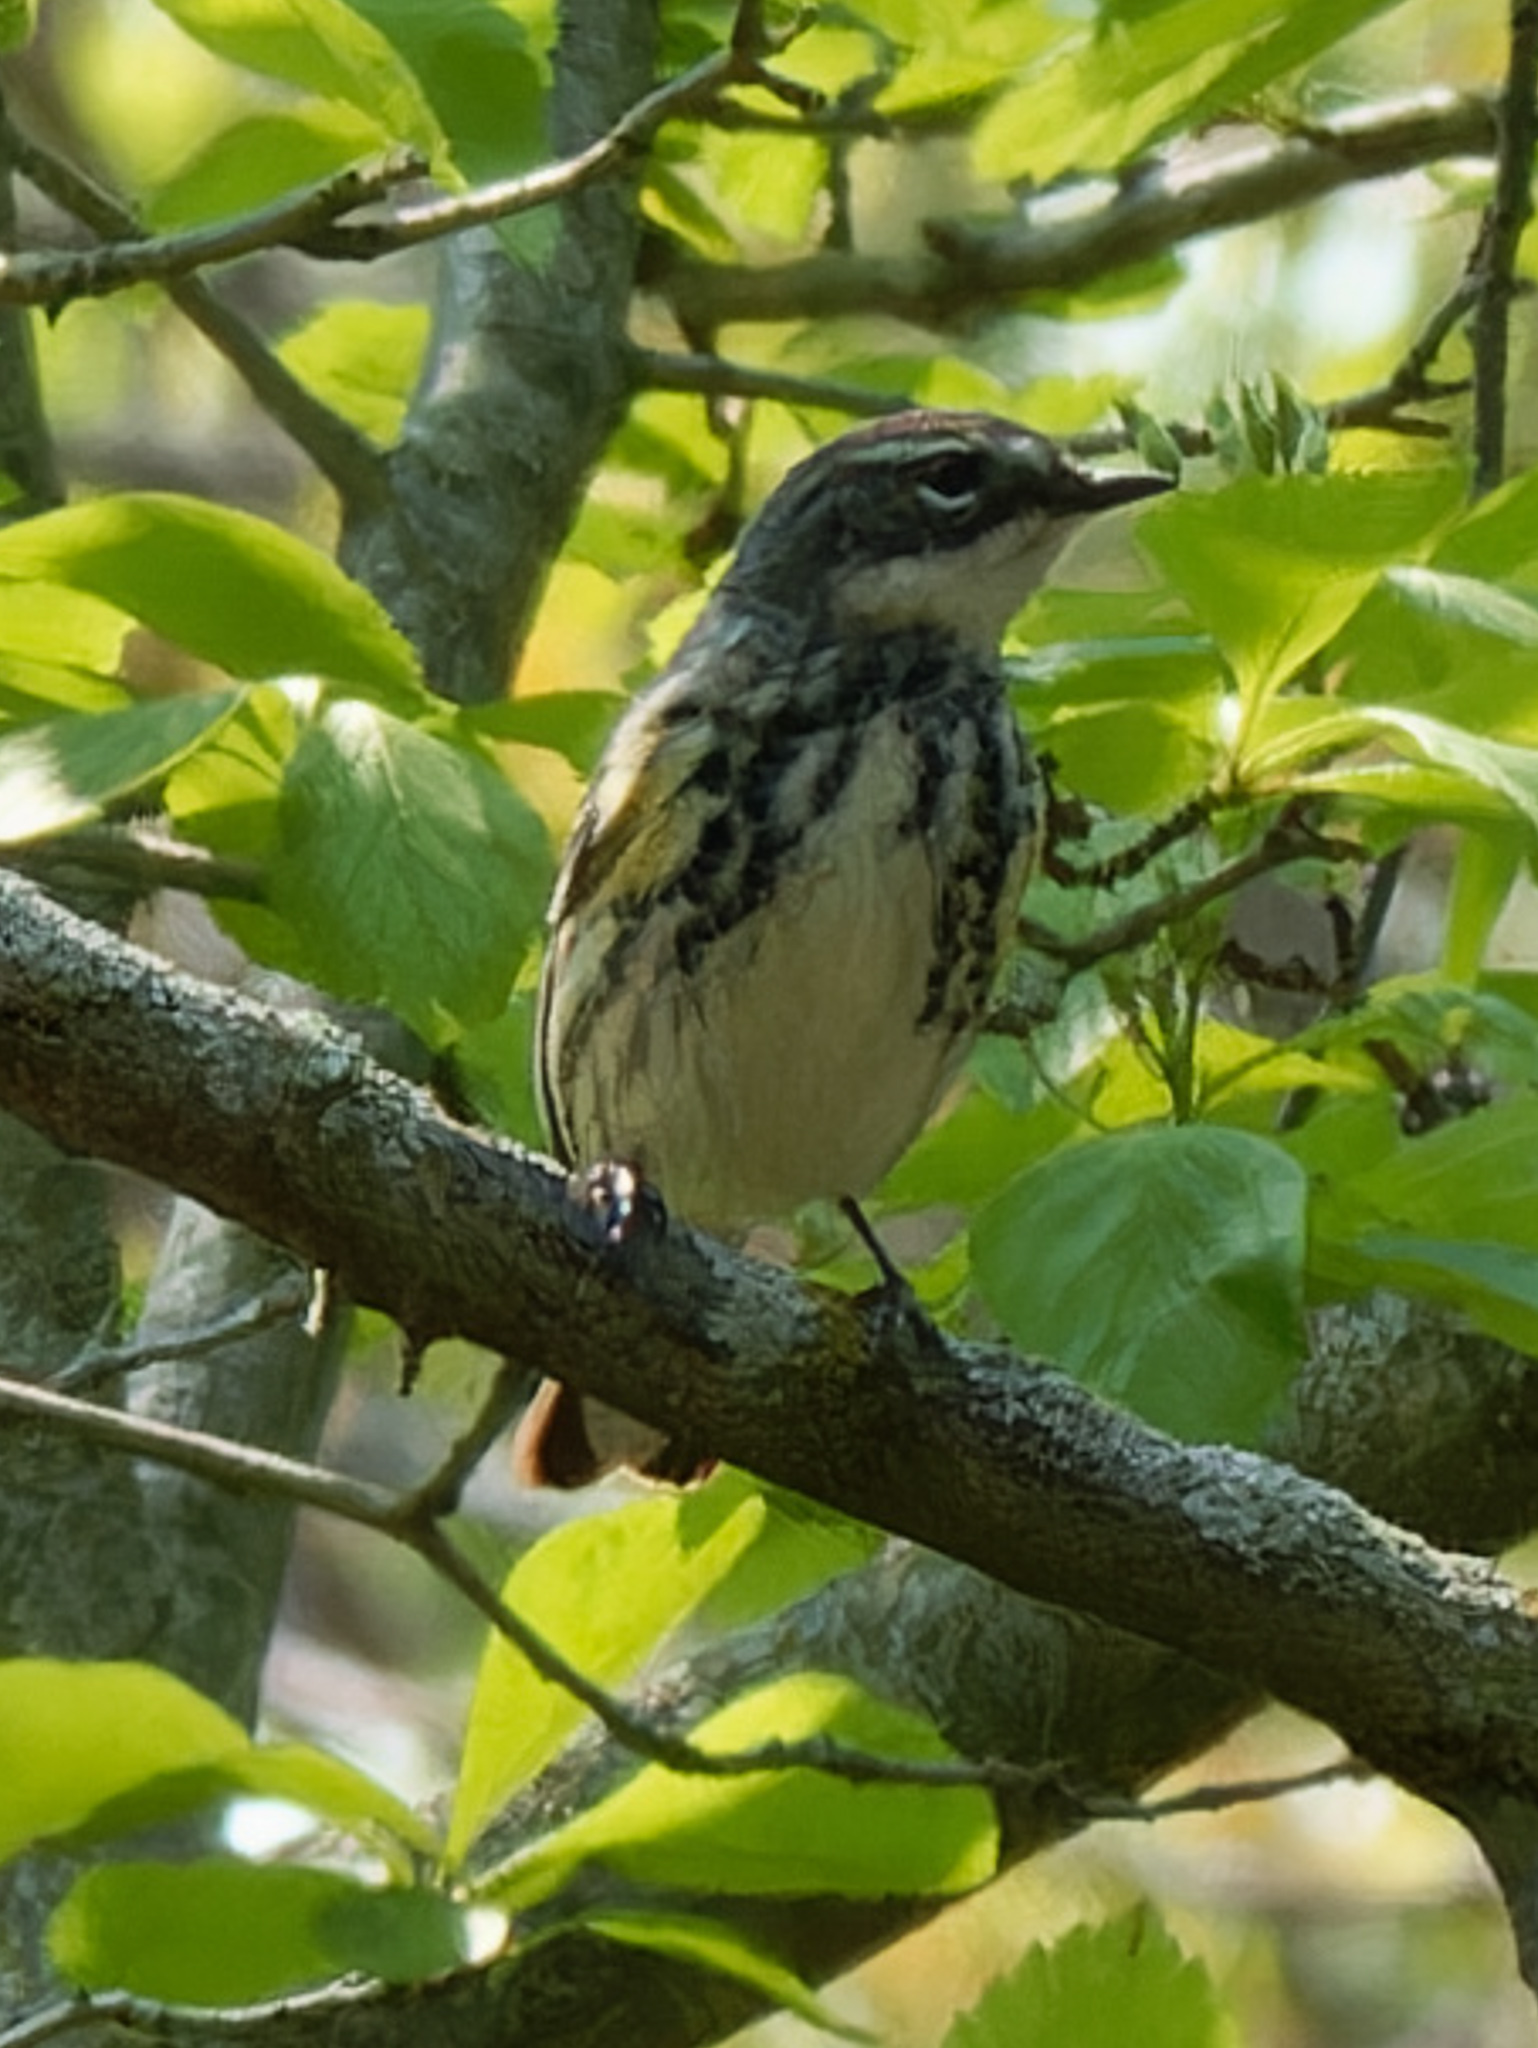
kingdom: Animalia
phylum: Chordata
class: Aves
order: Passeriformes
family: Parulidae
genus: Setophaga
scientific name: Setophaga coronata
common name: Myrtle warbler
